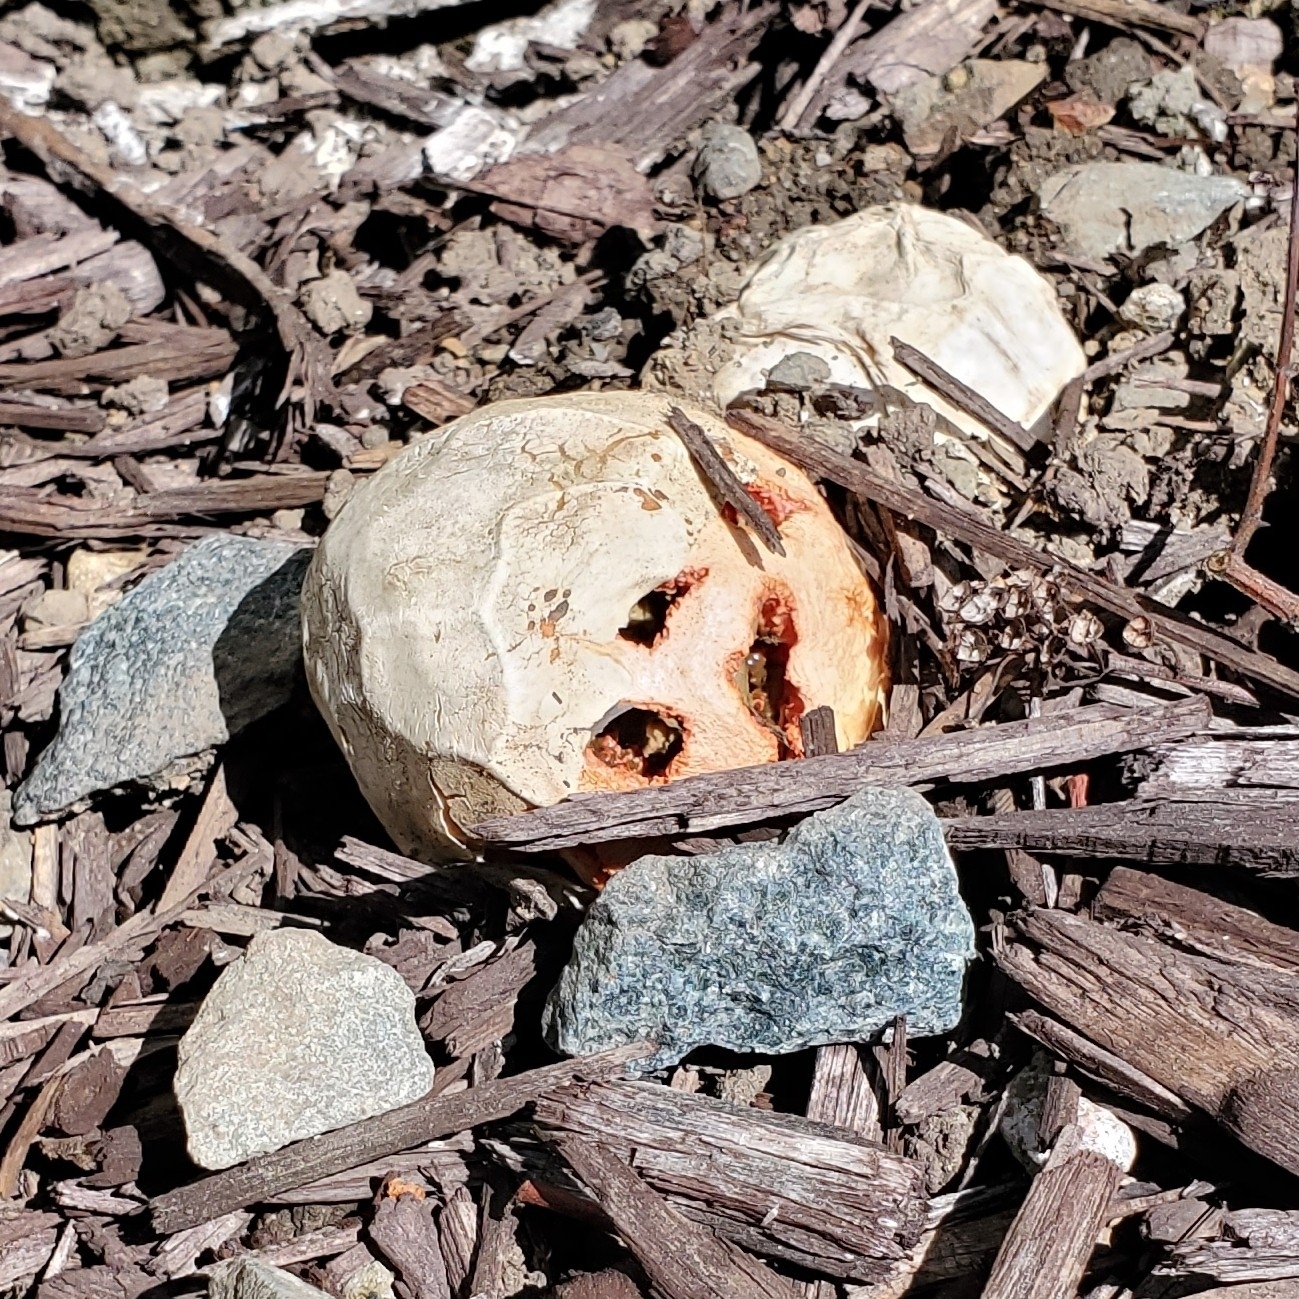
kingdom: Fungi
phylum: Basidiomycota
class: Agaricomycetes
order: Phallales
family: Phallaceae
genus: Clathrus
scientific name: Clathrus ruber
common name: Red cage
